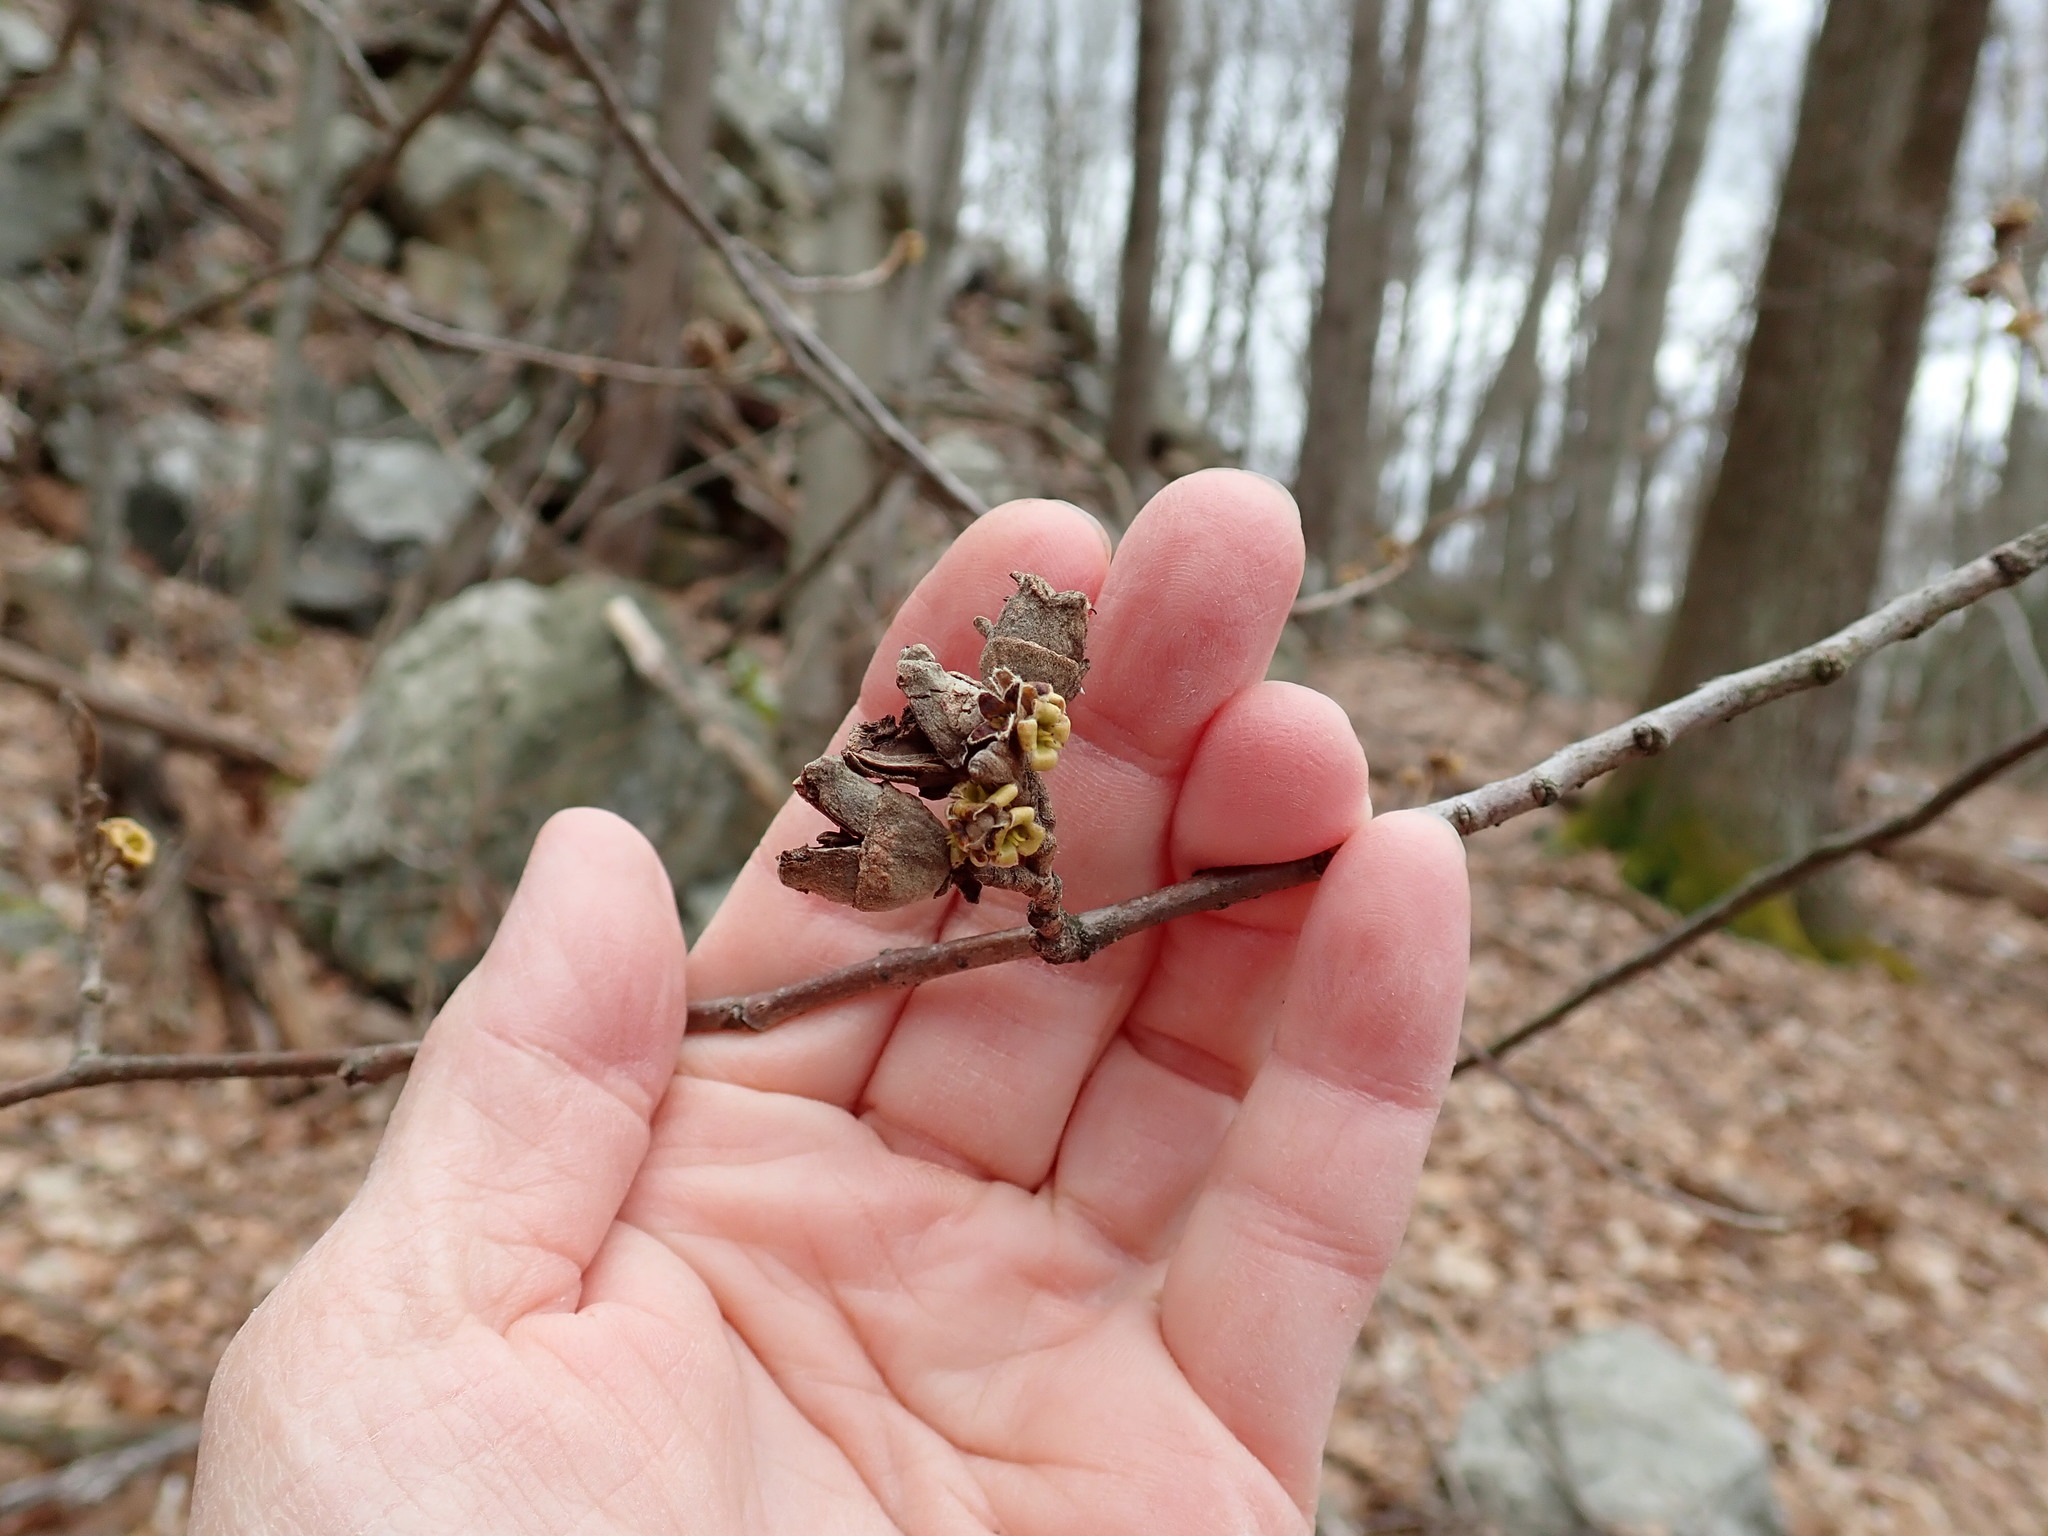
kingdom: Plantae
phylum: Tracheophyta
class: Magnoliopsida
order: Saxifragales
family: Hamamelidaceae
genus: Hamamelis
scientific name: Hamamelis virginiana
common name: Witch-hazel
